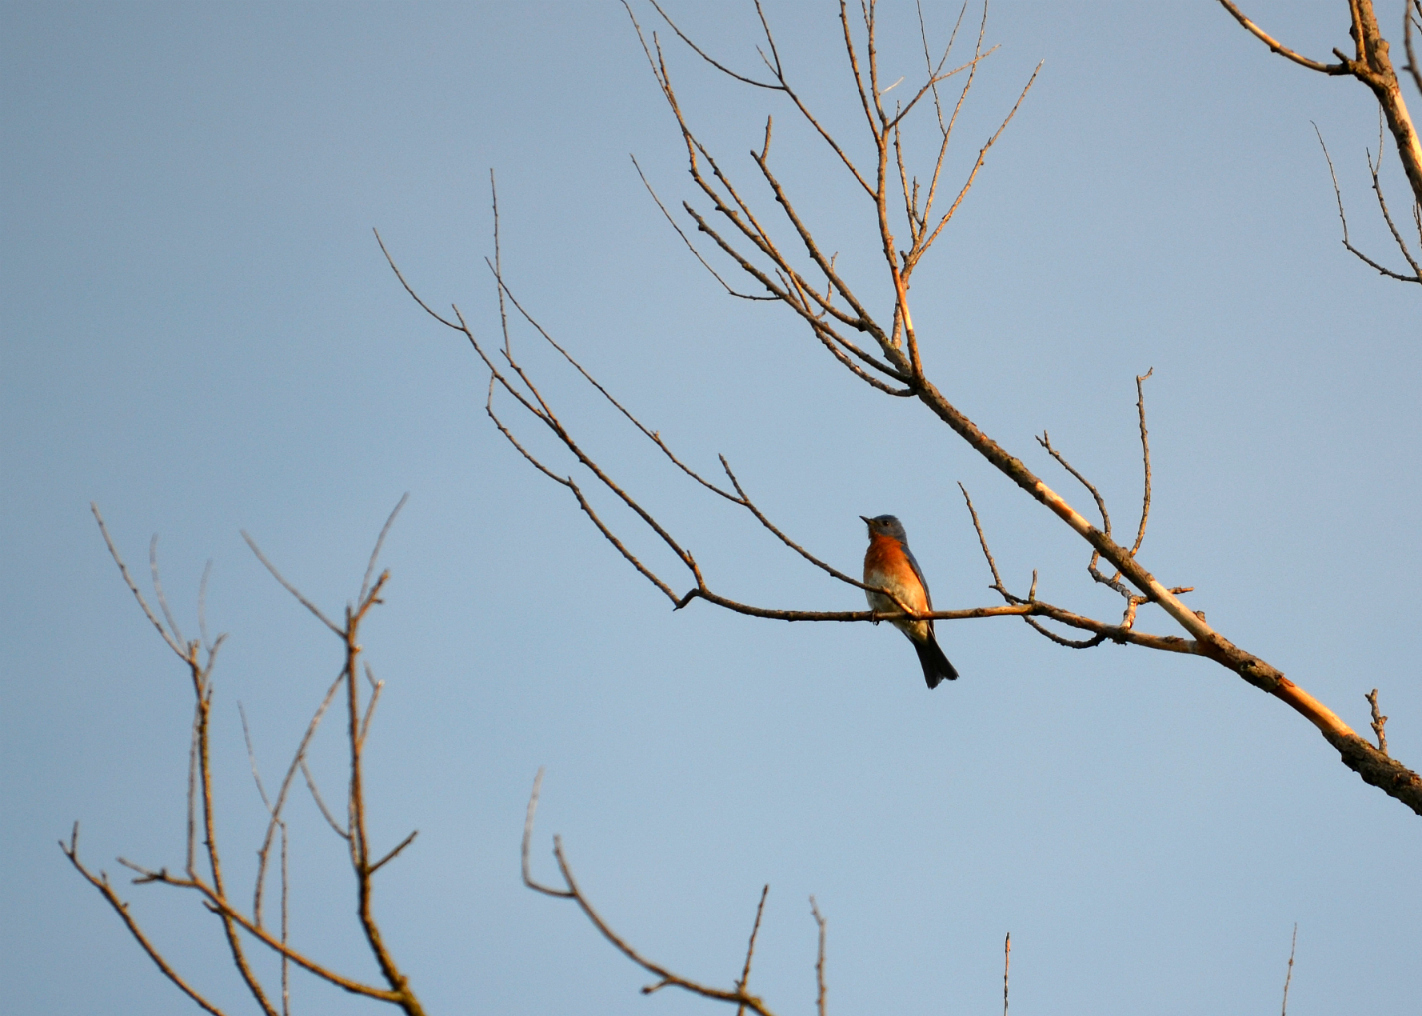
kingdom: Animalia
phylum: Chordata
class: Aves
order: Passeriformes
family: Turdidae
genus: Sialia
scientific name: Sialia sialis
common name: Eastern bluebird
